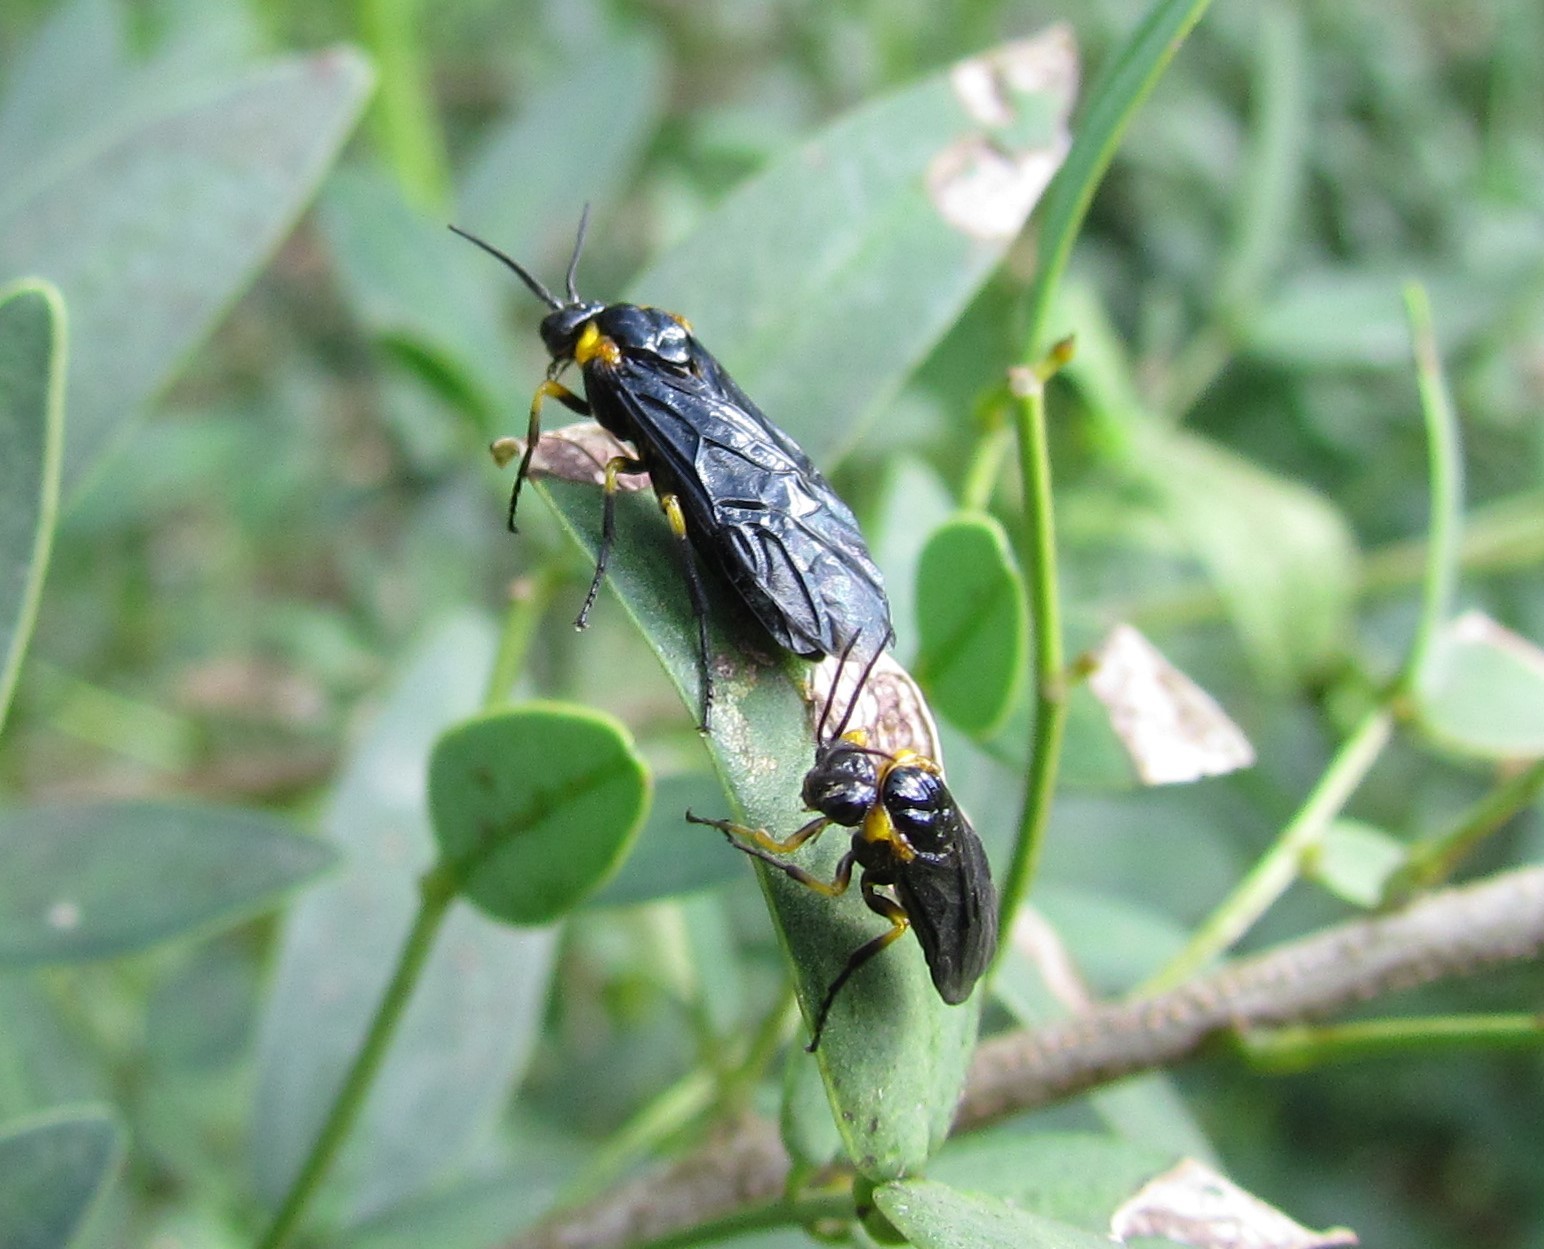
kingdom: Animalia
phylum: Arthropoda
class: Insecta
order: Hymenoptera
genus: Adurgoa
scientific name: Adurgoa
